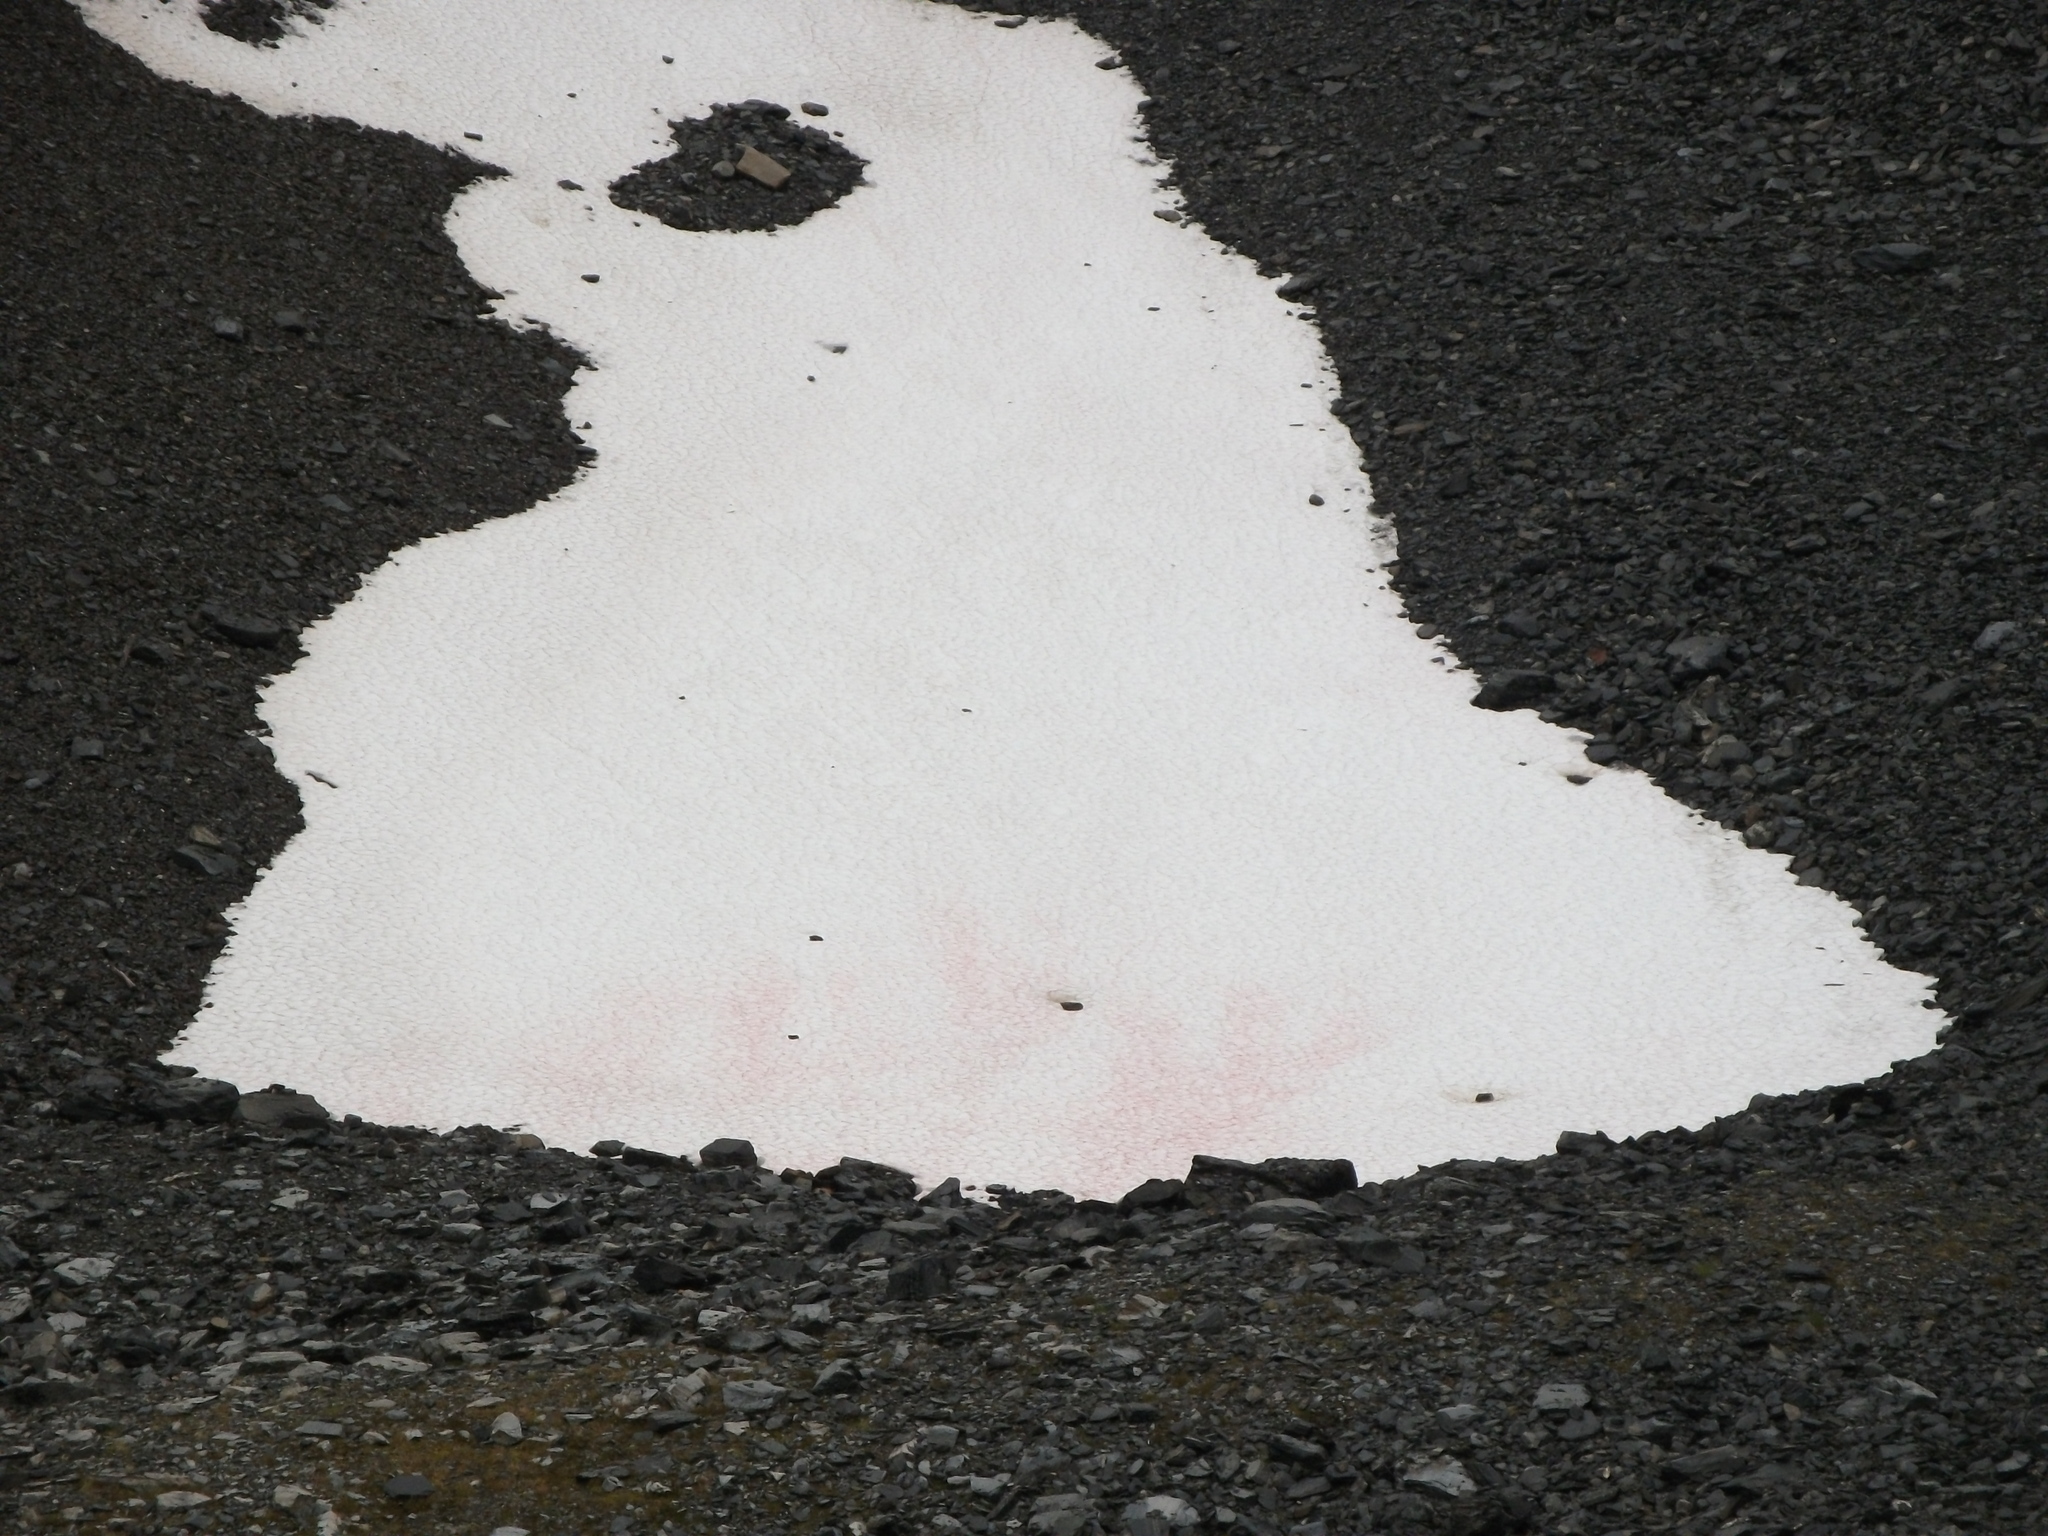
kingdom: Plantae
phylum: Chlorophyta
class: Chlorophyceae
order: Volvocales
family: Chlamydomonadaceae
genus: Chlamydomonas
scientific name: Chlamydomonas nivalis
